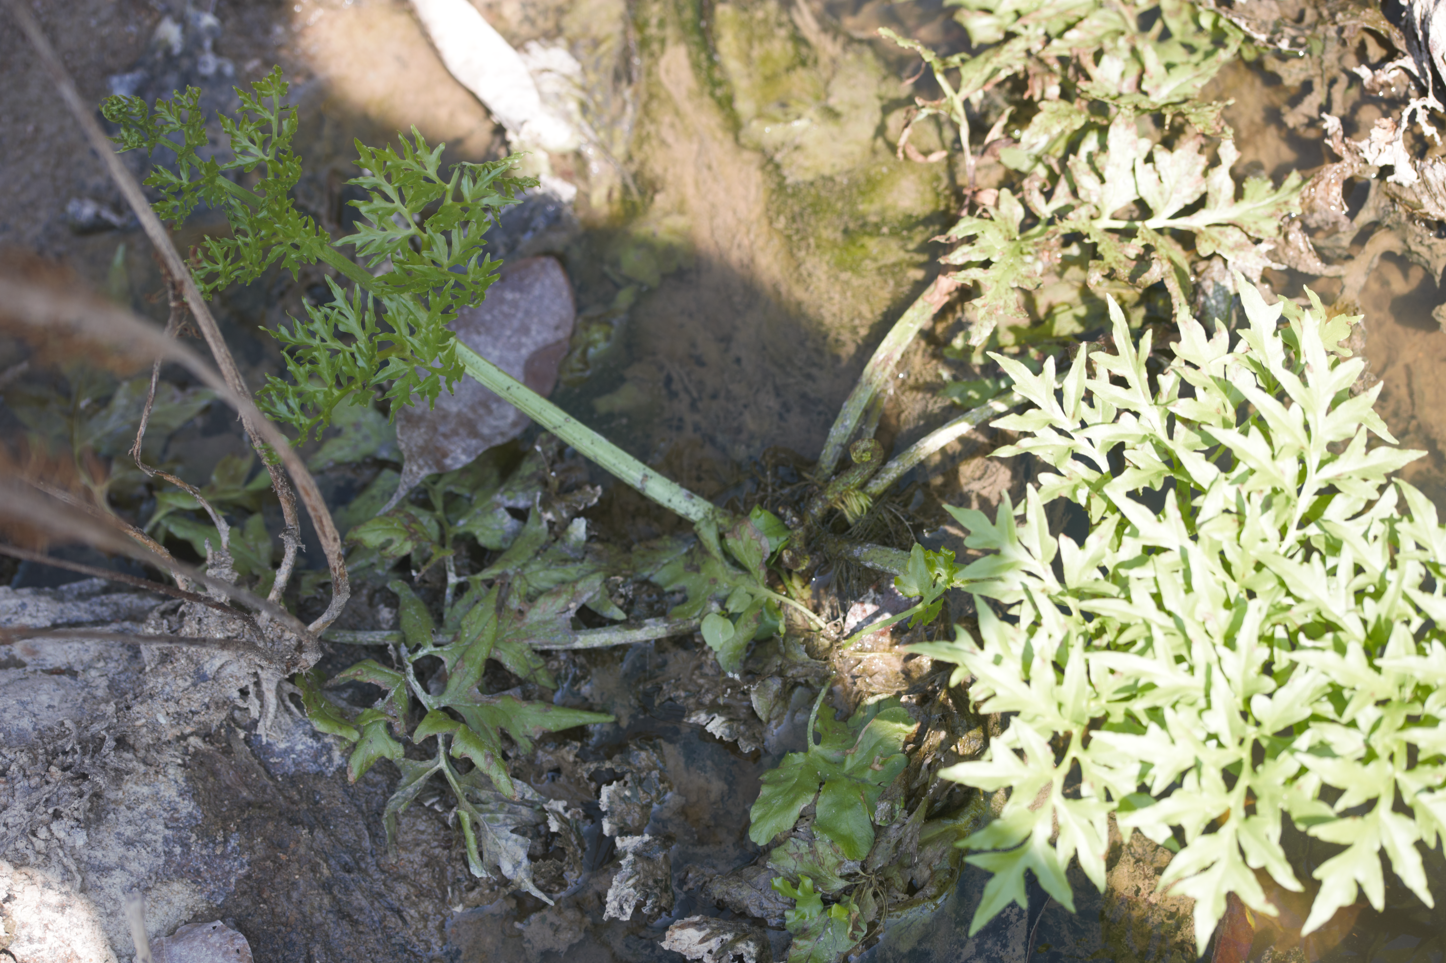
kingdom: Plantae
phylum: Tracheophyta
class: Polypodiopsida
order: Polypodiales
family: Pteridaceae
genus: Ceratopteris
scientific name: Ceratopteris thalictroides
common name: Water fern
